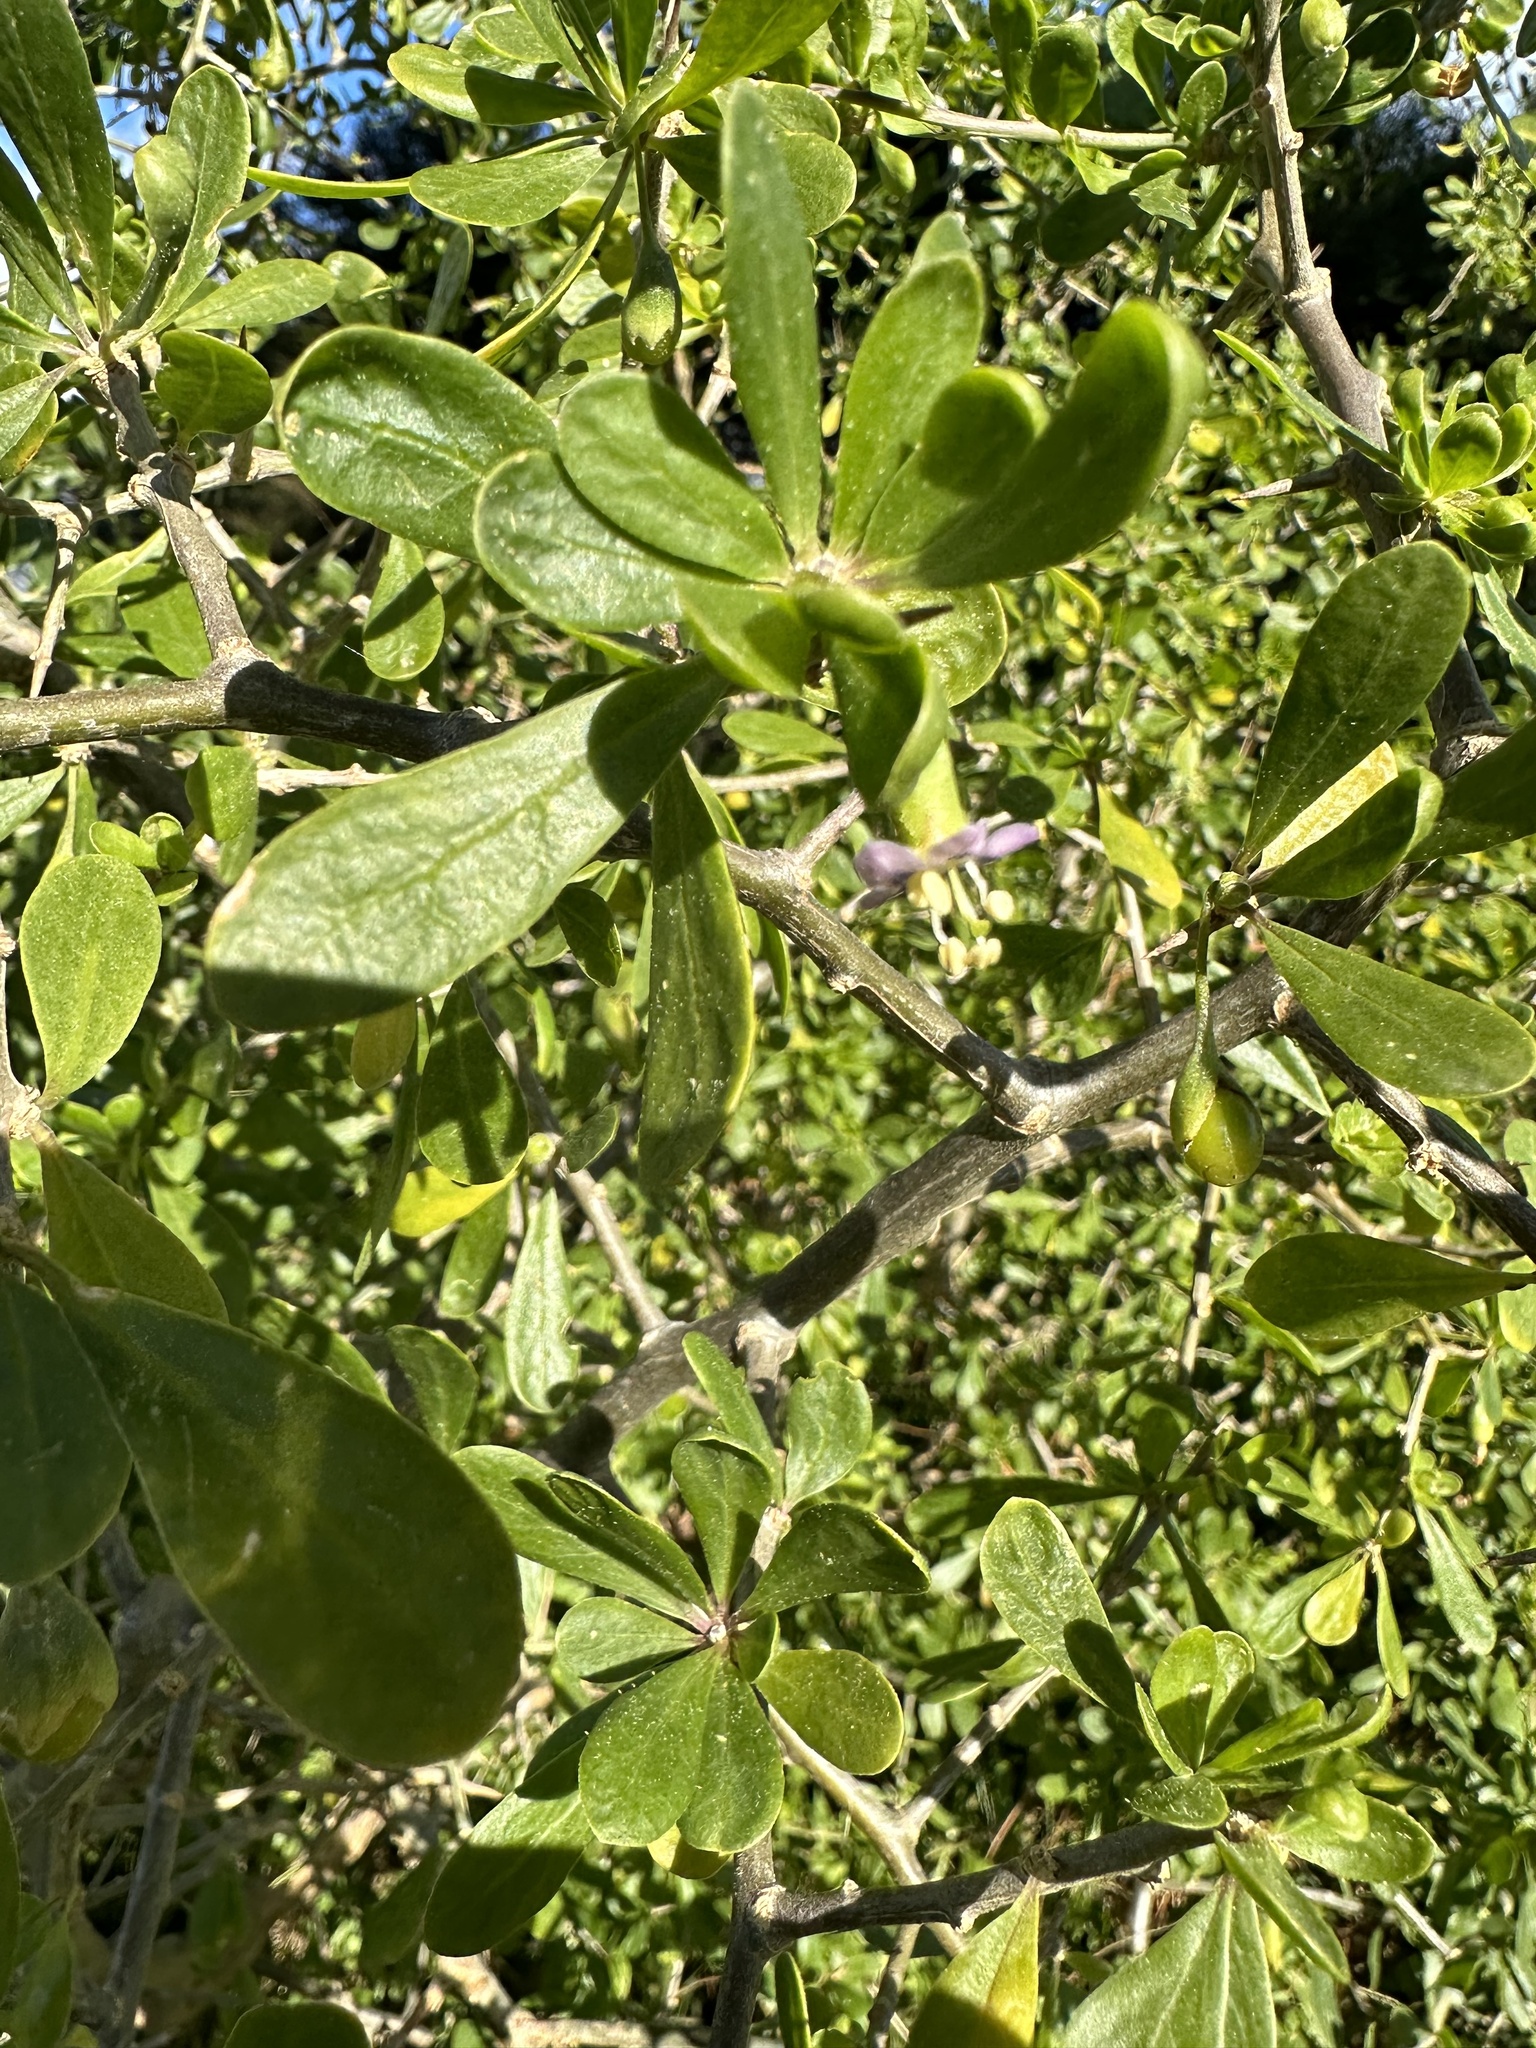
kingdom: Plantae
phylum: Tracheophyta
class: Magnoliopsida
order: Solanales
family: Solanaceae
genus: Lycium
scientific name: Lycium ferocissimum
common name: African boxthorn
